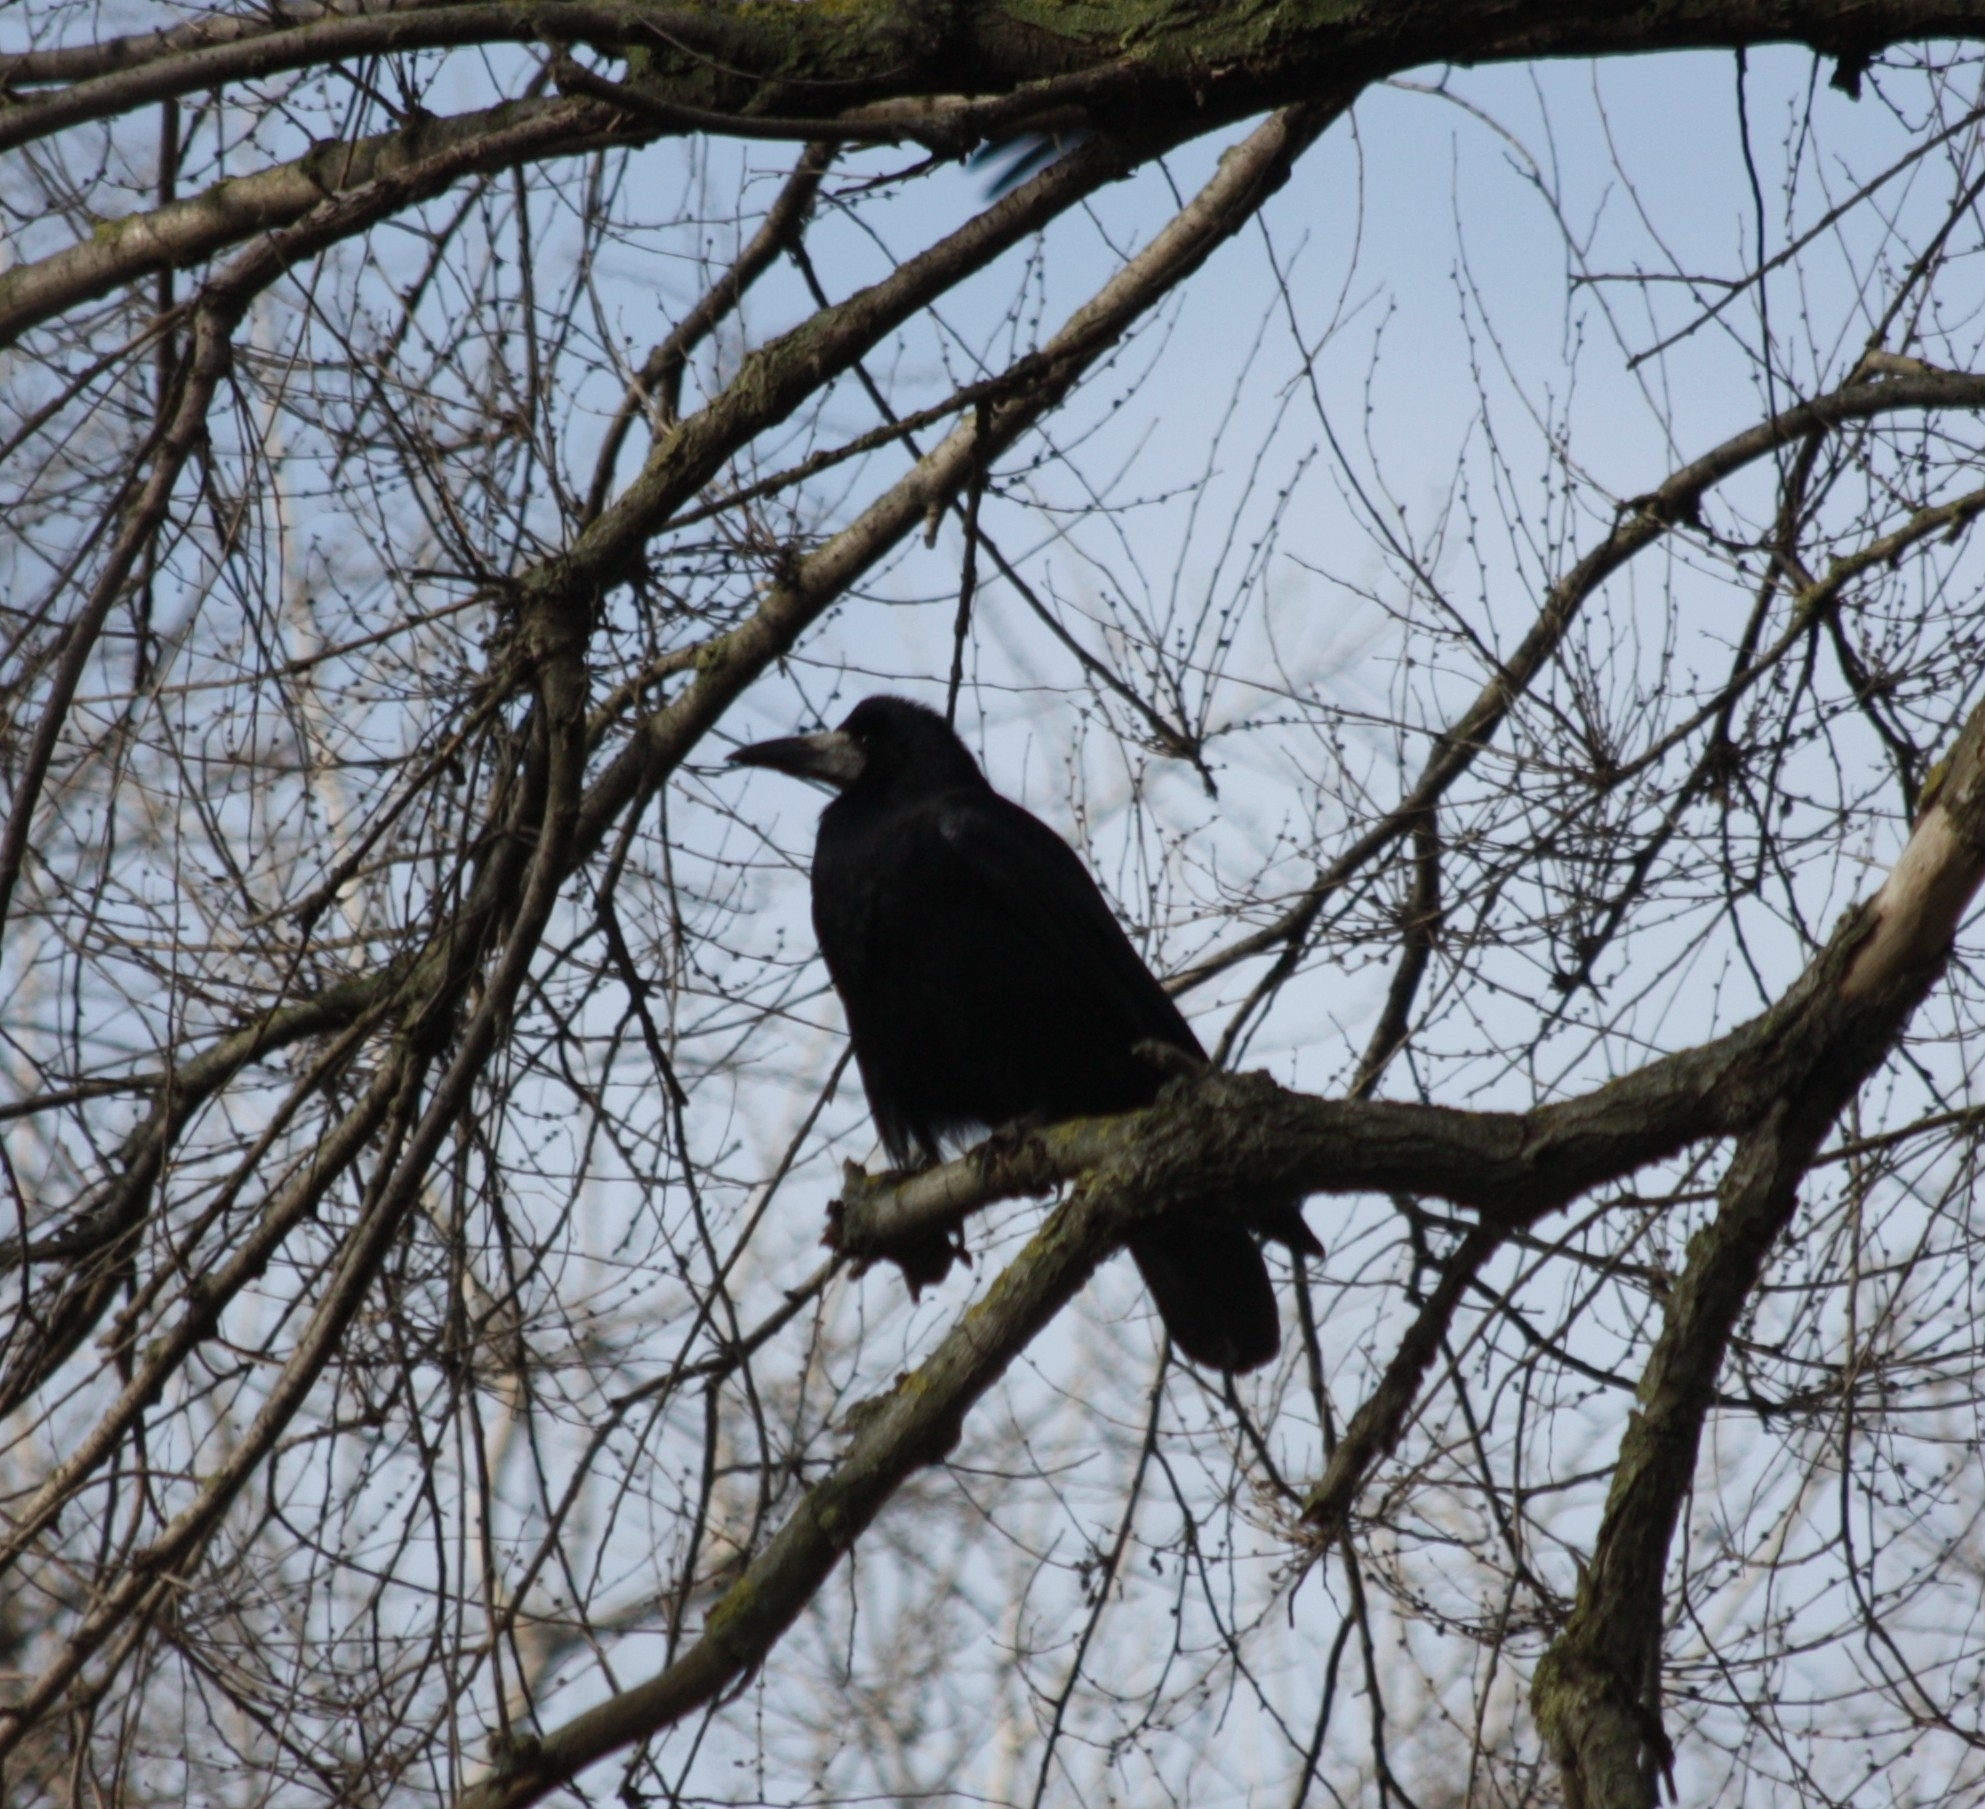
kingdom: Animalia
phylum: Chordata
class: Aves
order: Passeriformes
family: Corvidae
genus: Corvus
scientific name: Corvus frugilegus
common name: Rook
